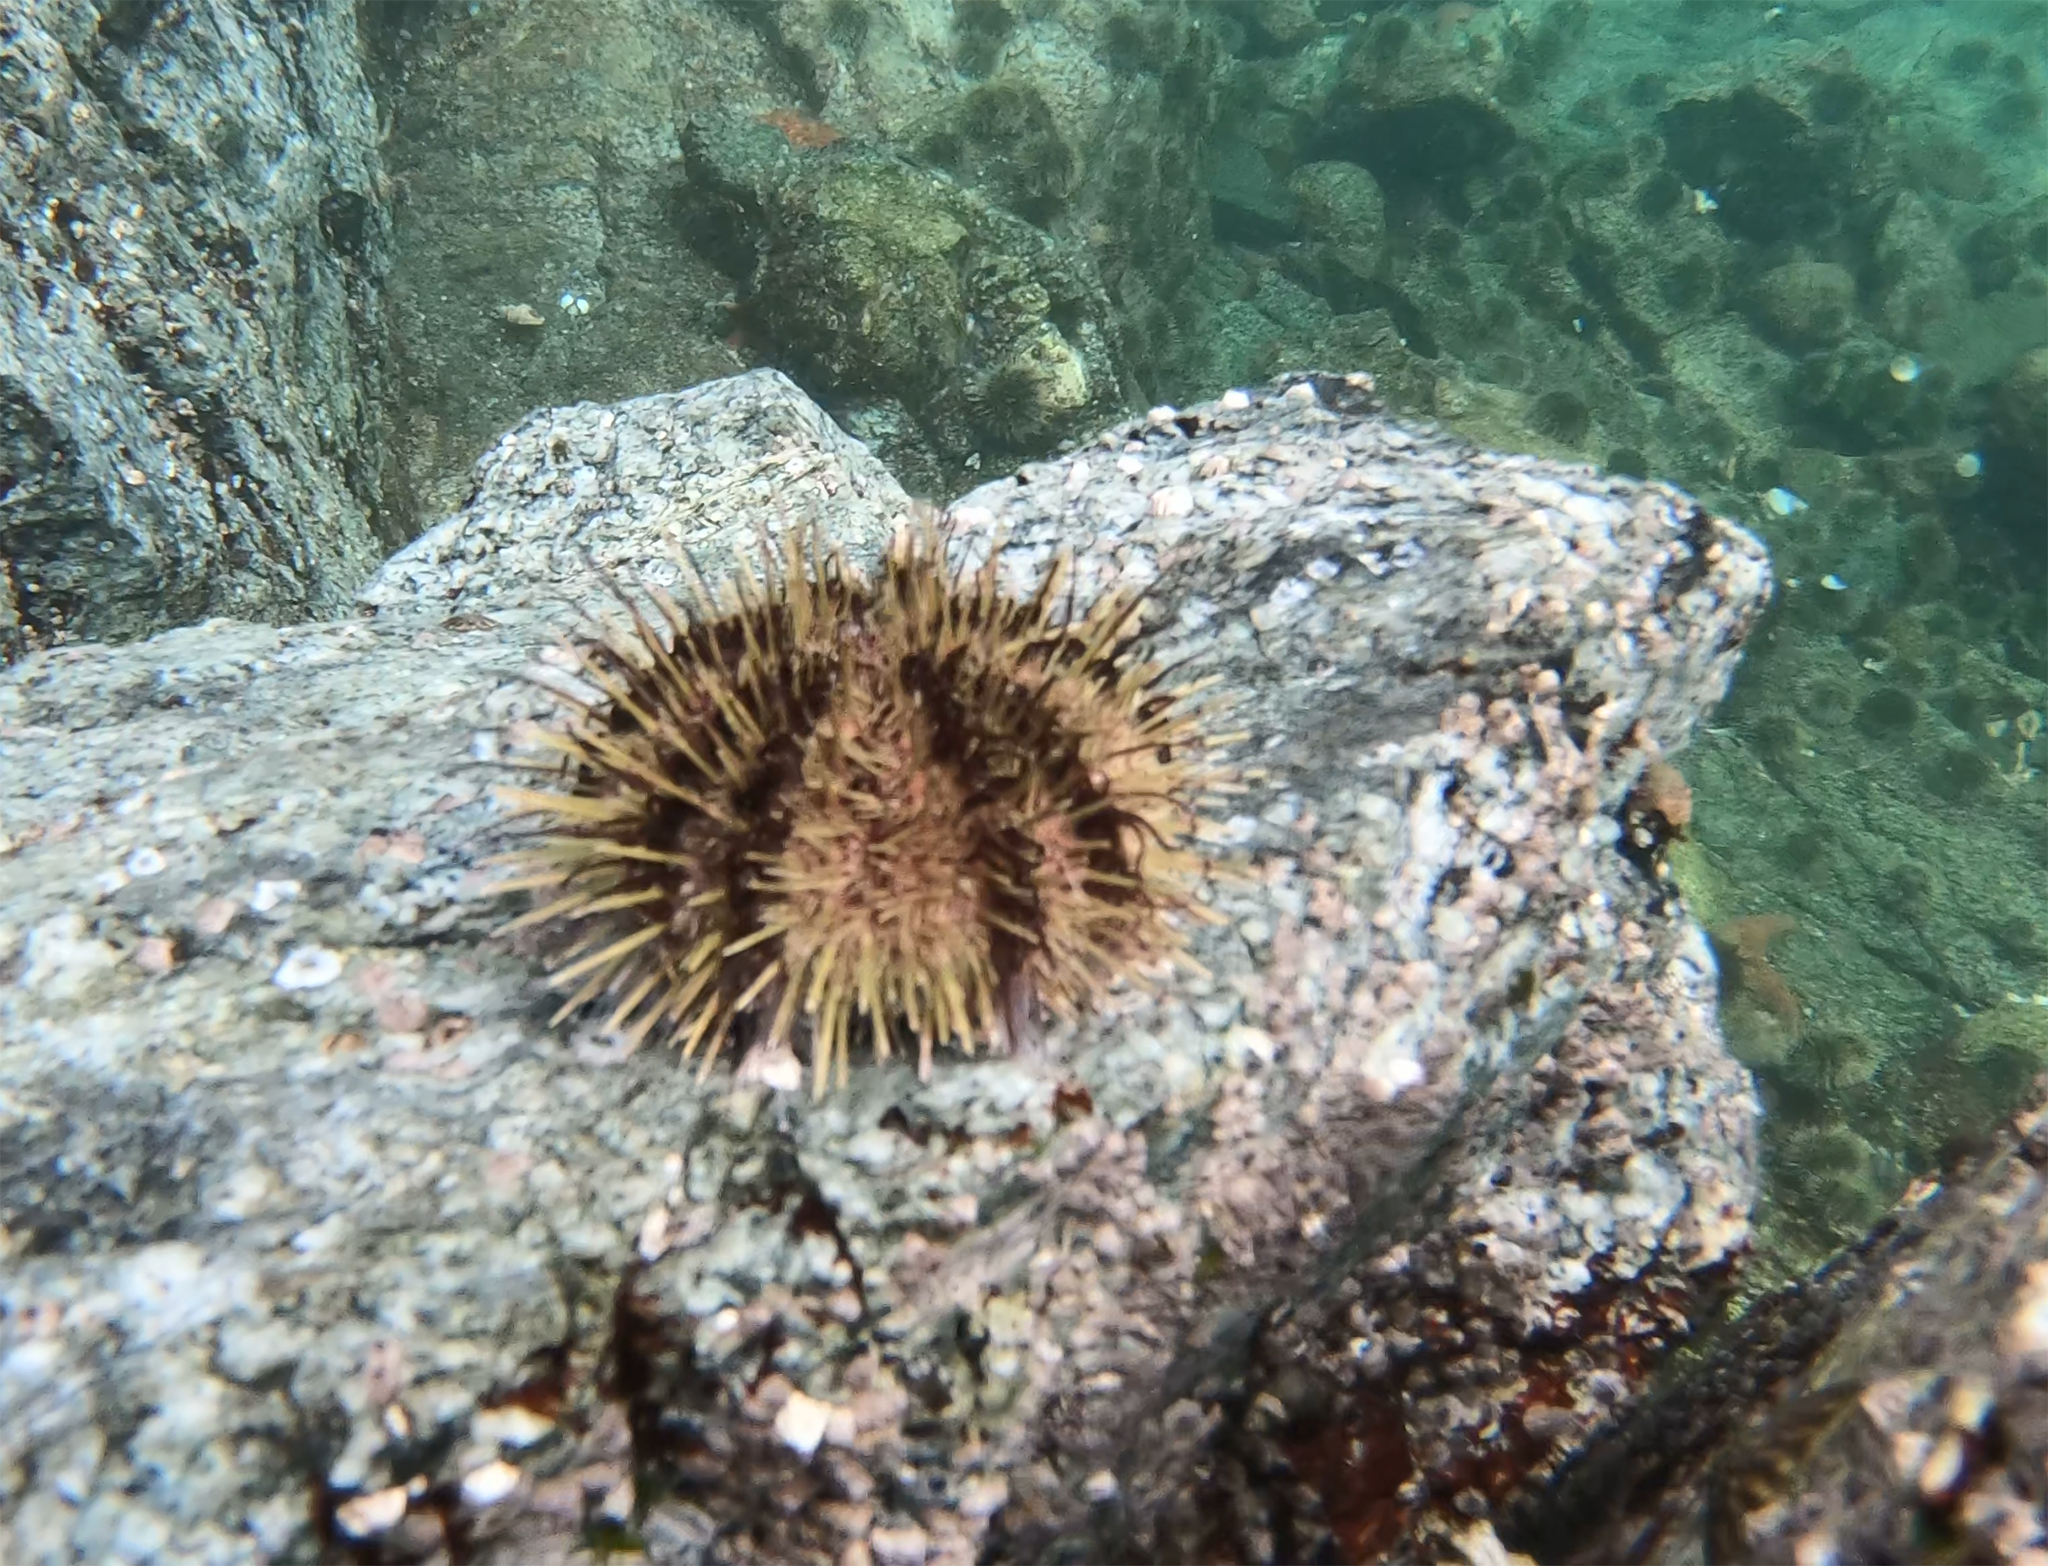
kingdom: Animalia
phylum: Echinodermata
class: Echinoidea
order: Camarodonta
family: Strongylocentrotidae
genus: Strongylocentrotus
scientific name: Strongylocentrotus droebachiensis
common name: Northern sea urchin
